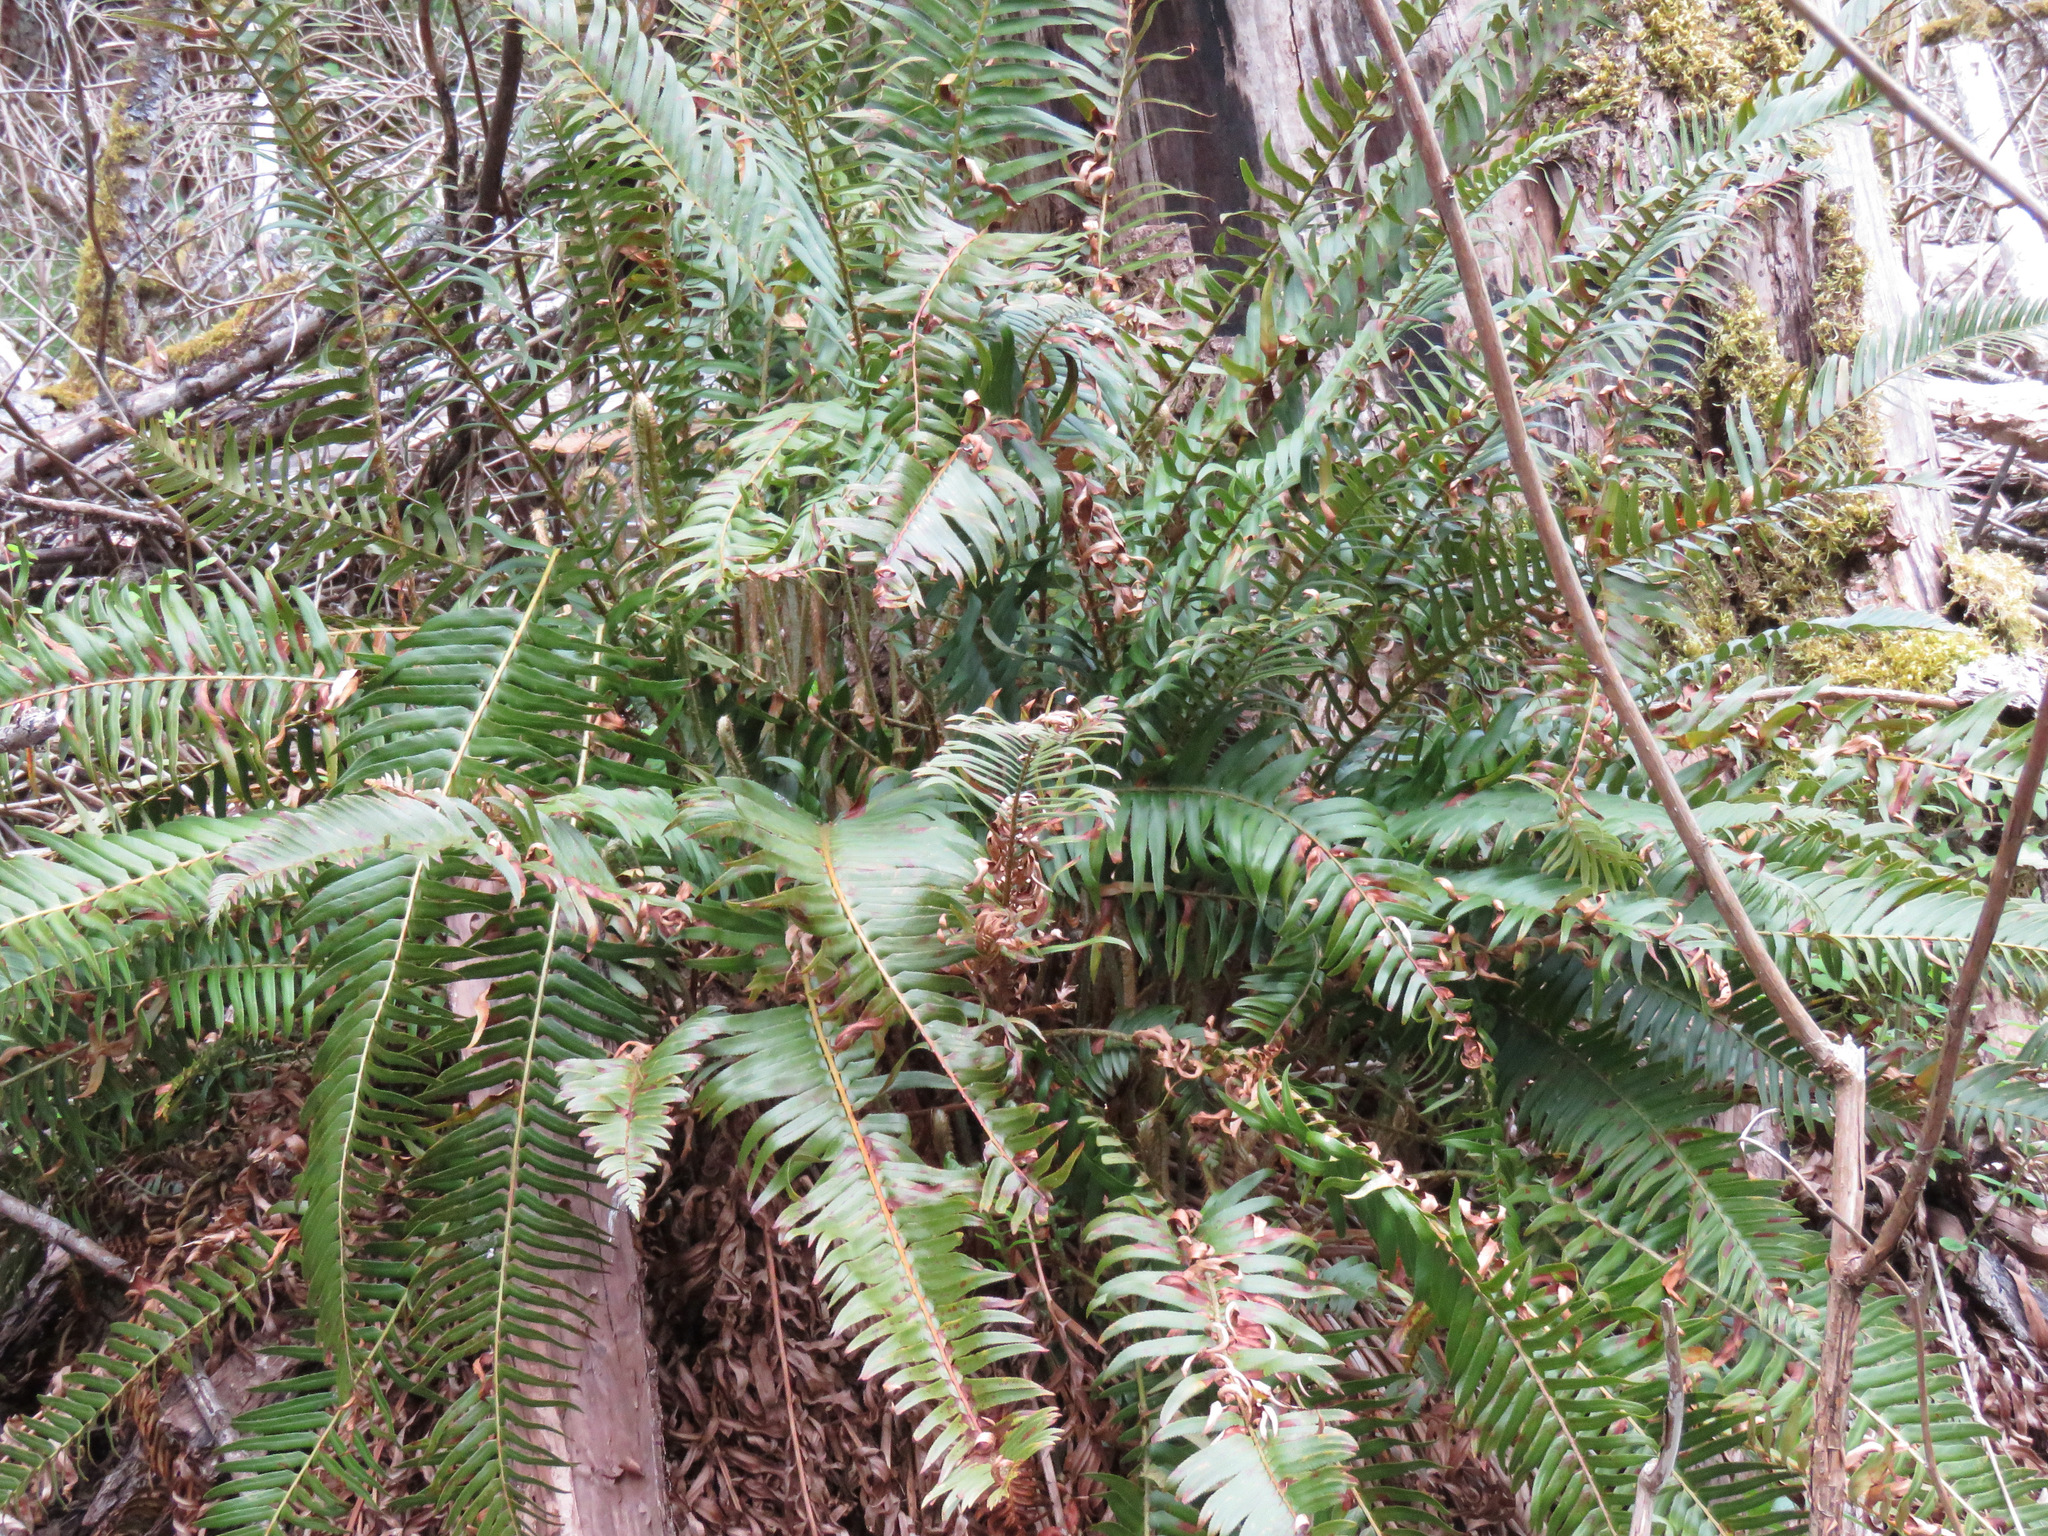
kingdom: Plantae
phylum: Tracheophyta
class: Polypodiopsida
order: Polypodiales
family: Dryopteridaceae
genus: Polystichum
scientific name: Polystichum munitum
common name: Western sword-fern
